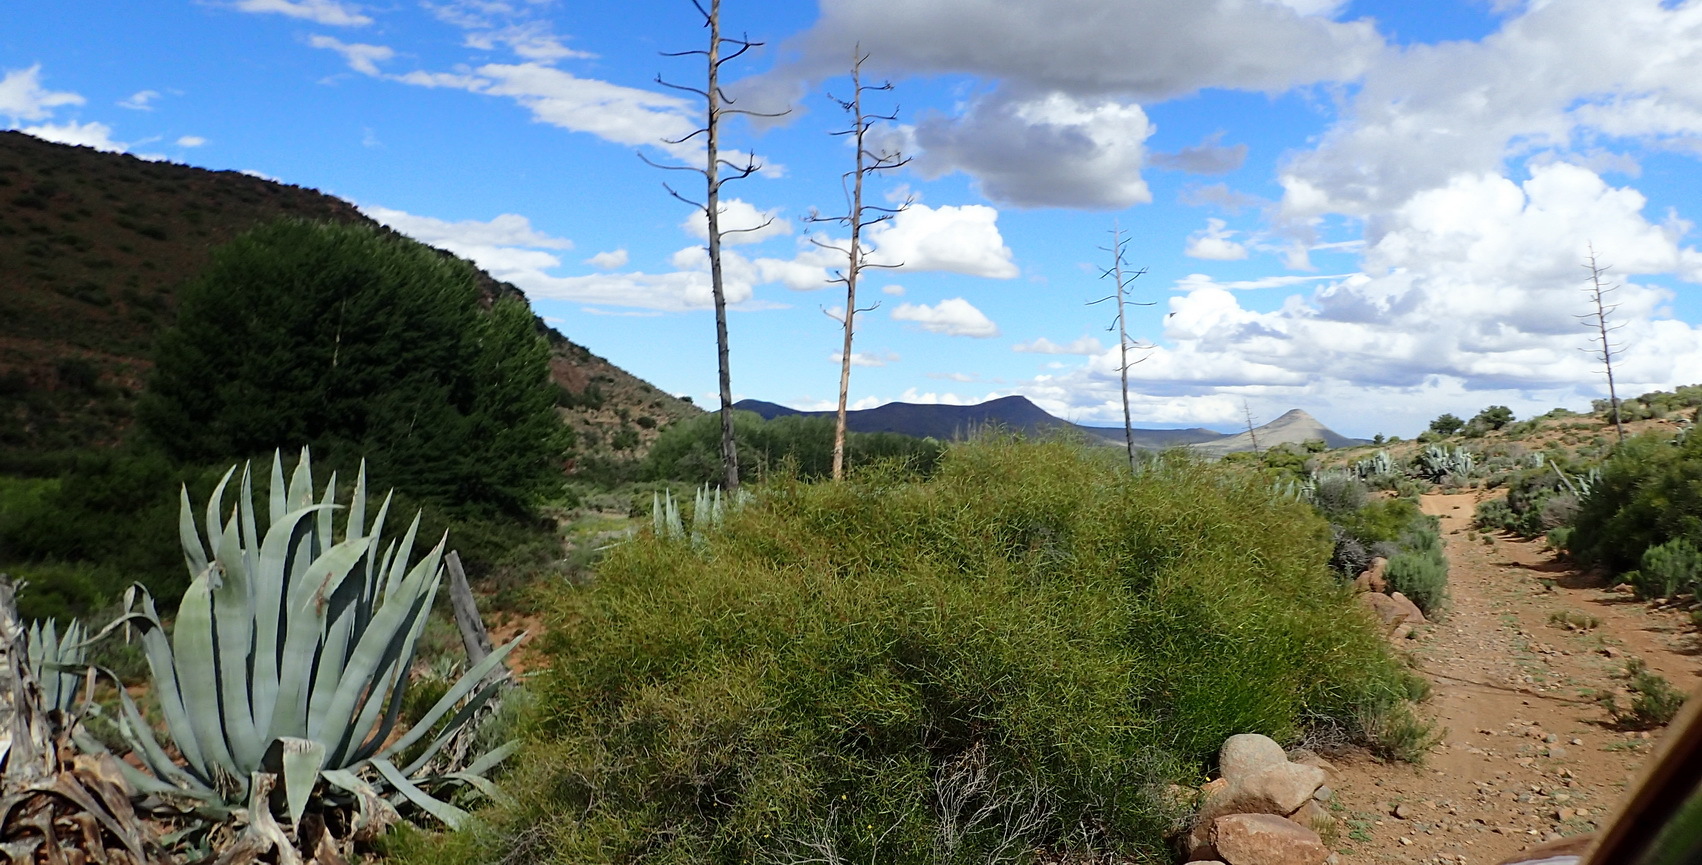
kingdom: Plantae
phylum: Tracheophyta
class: Liliopsida
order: Asparagales
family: Asparagaceae
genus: Agave
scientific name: Agave americana
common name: Centuryplant
